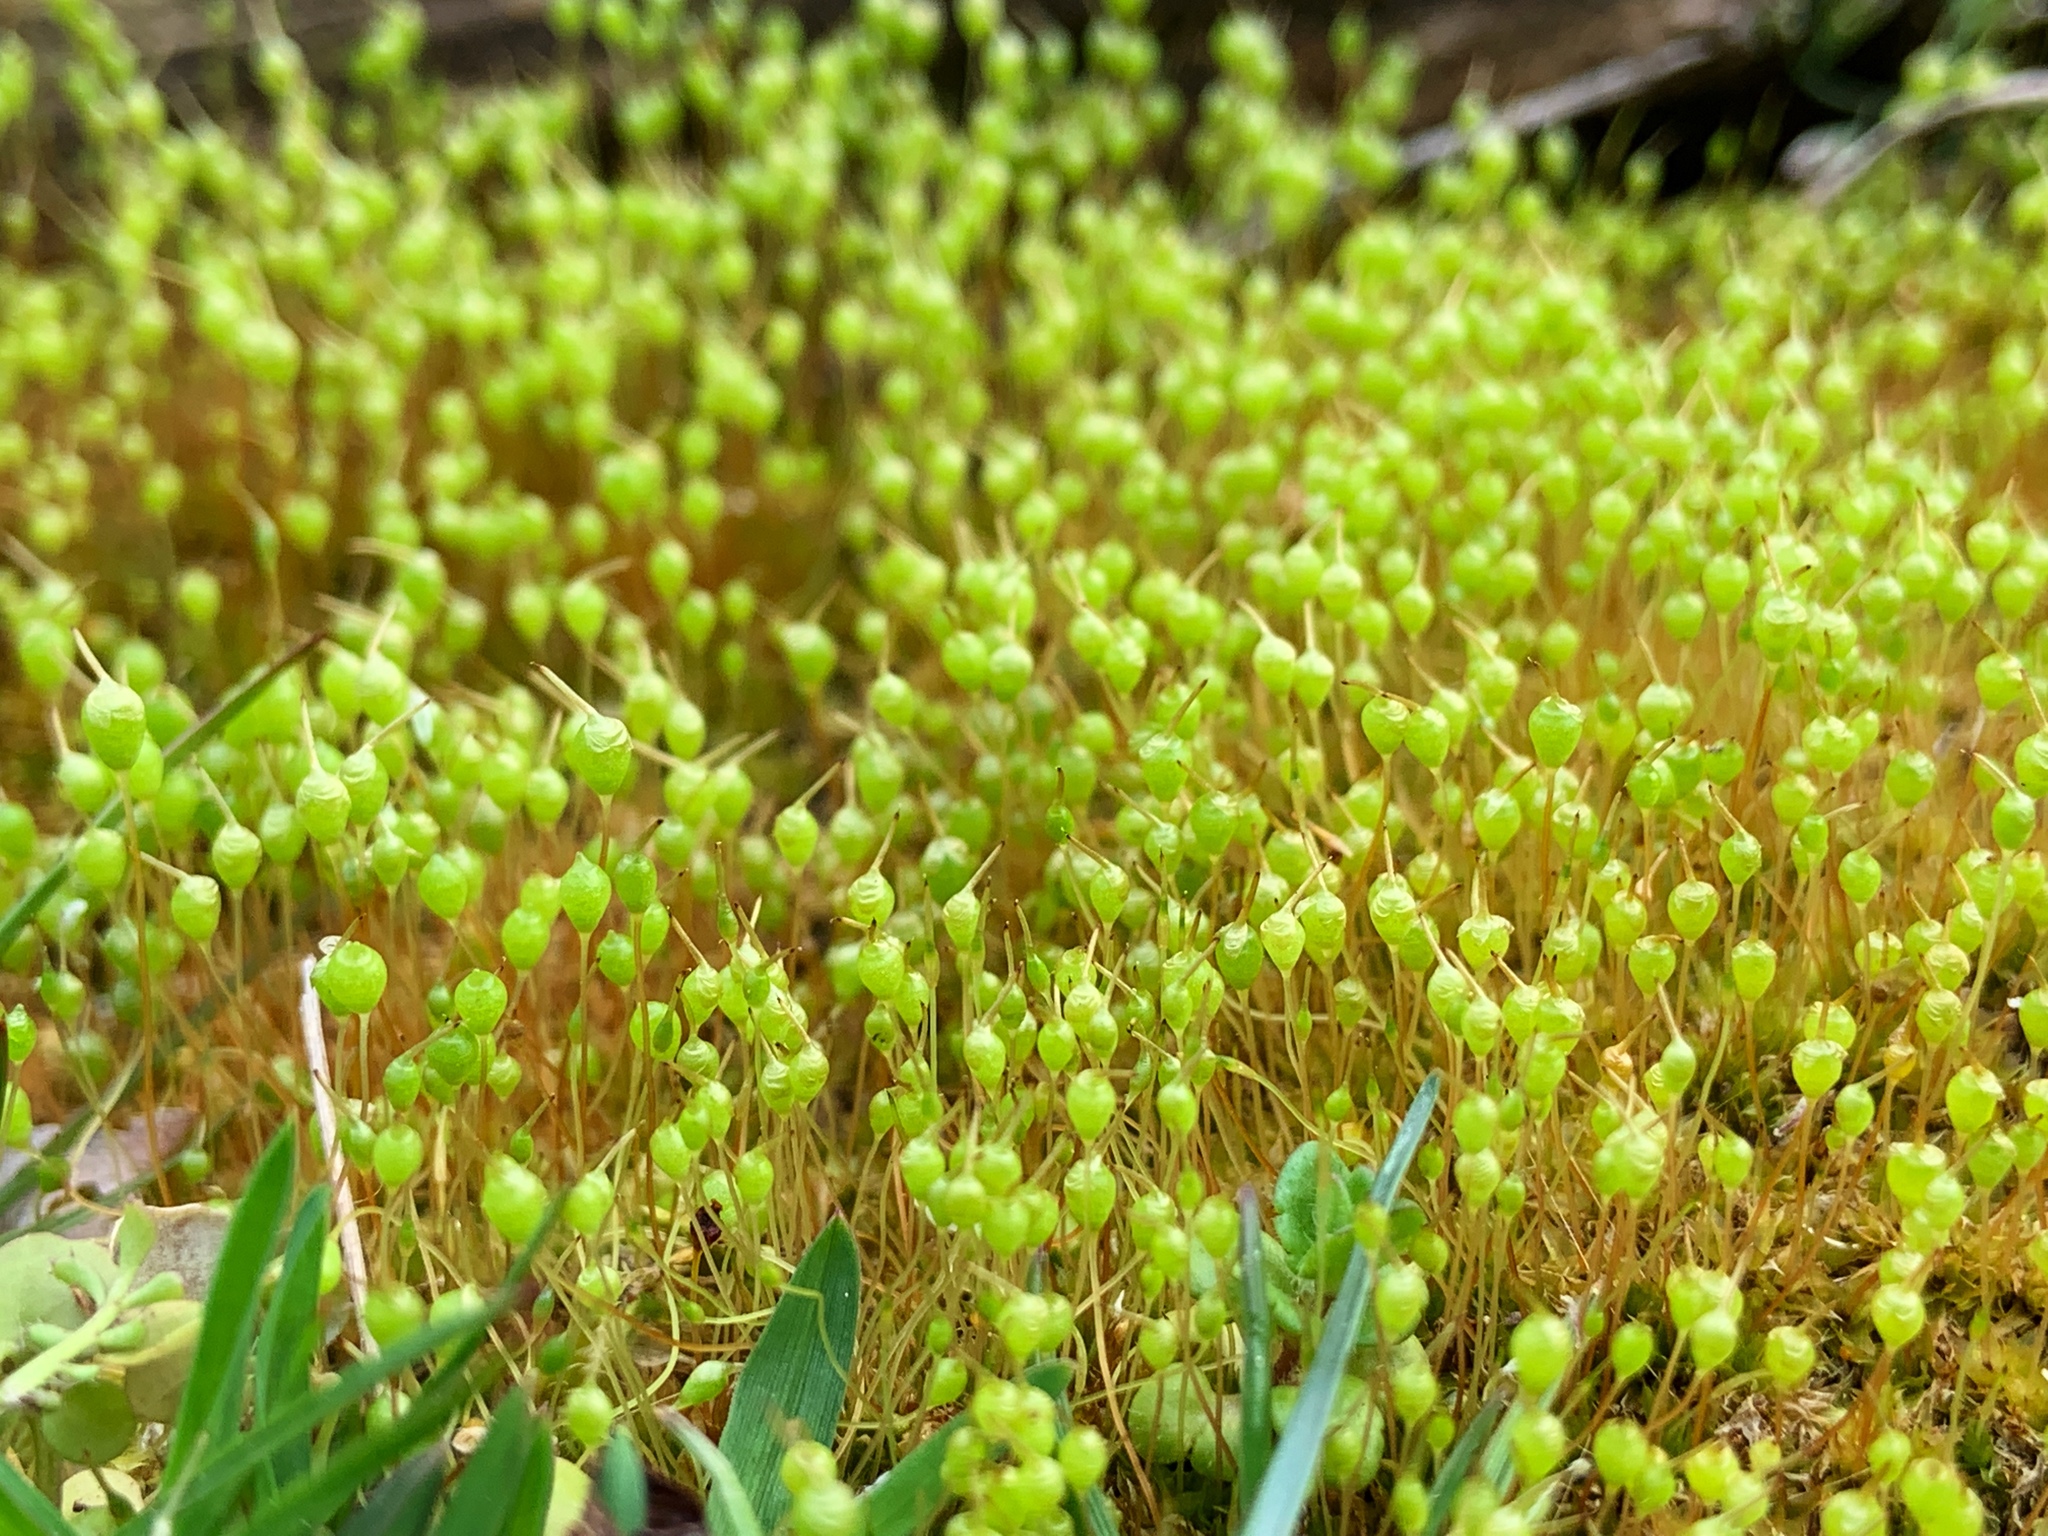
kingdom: Plantae
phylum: Bryophyta
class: Bryopsida
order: Funariales
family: Funariaceae
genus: Physcomitrium
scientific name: Physcomitrium pyriforme
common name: Common bladder-moss
